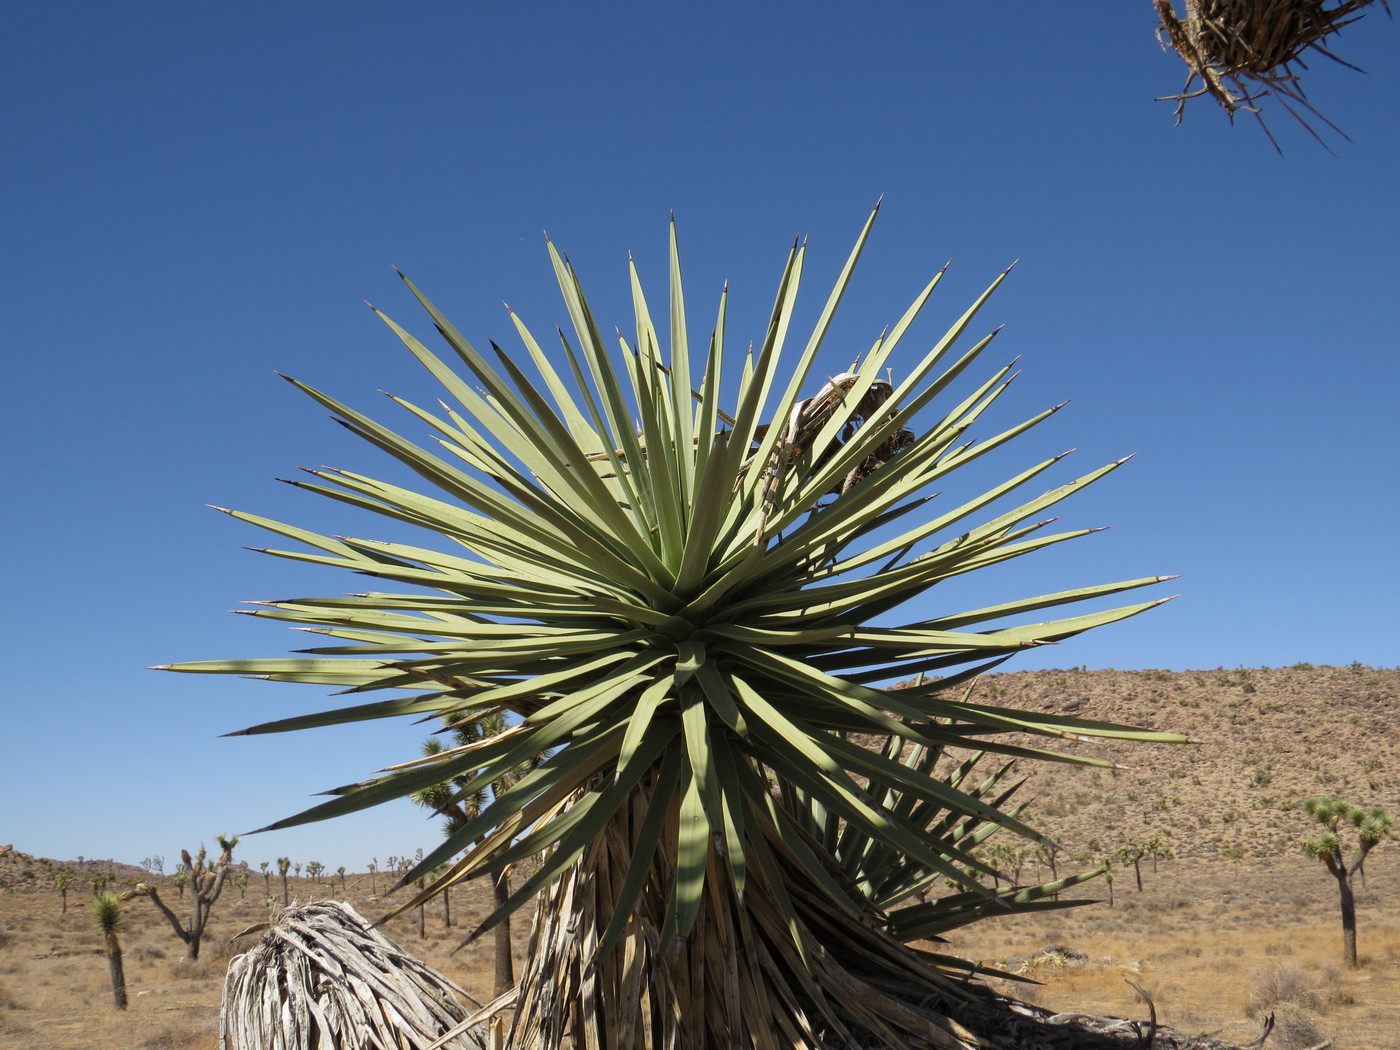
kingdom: Plantae
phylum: Tracheophyta
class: Liliopsida
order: Asparagales
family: Asparagaceae
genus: Yucca
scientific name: Yucca brevifolia
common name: Joshua tree
